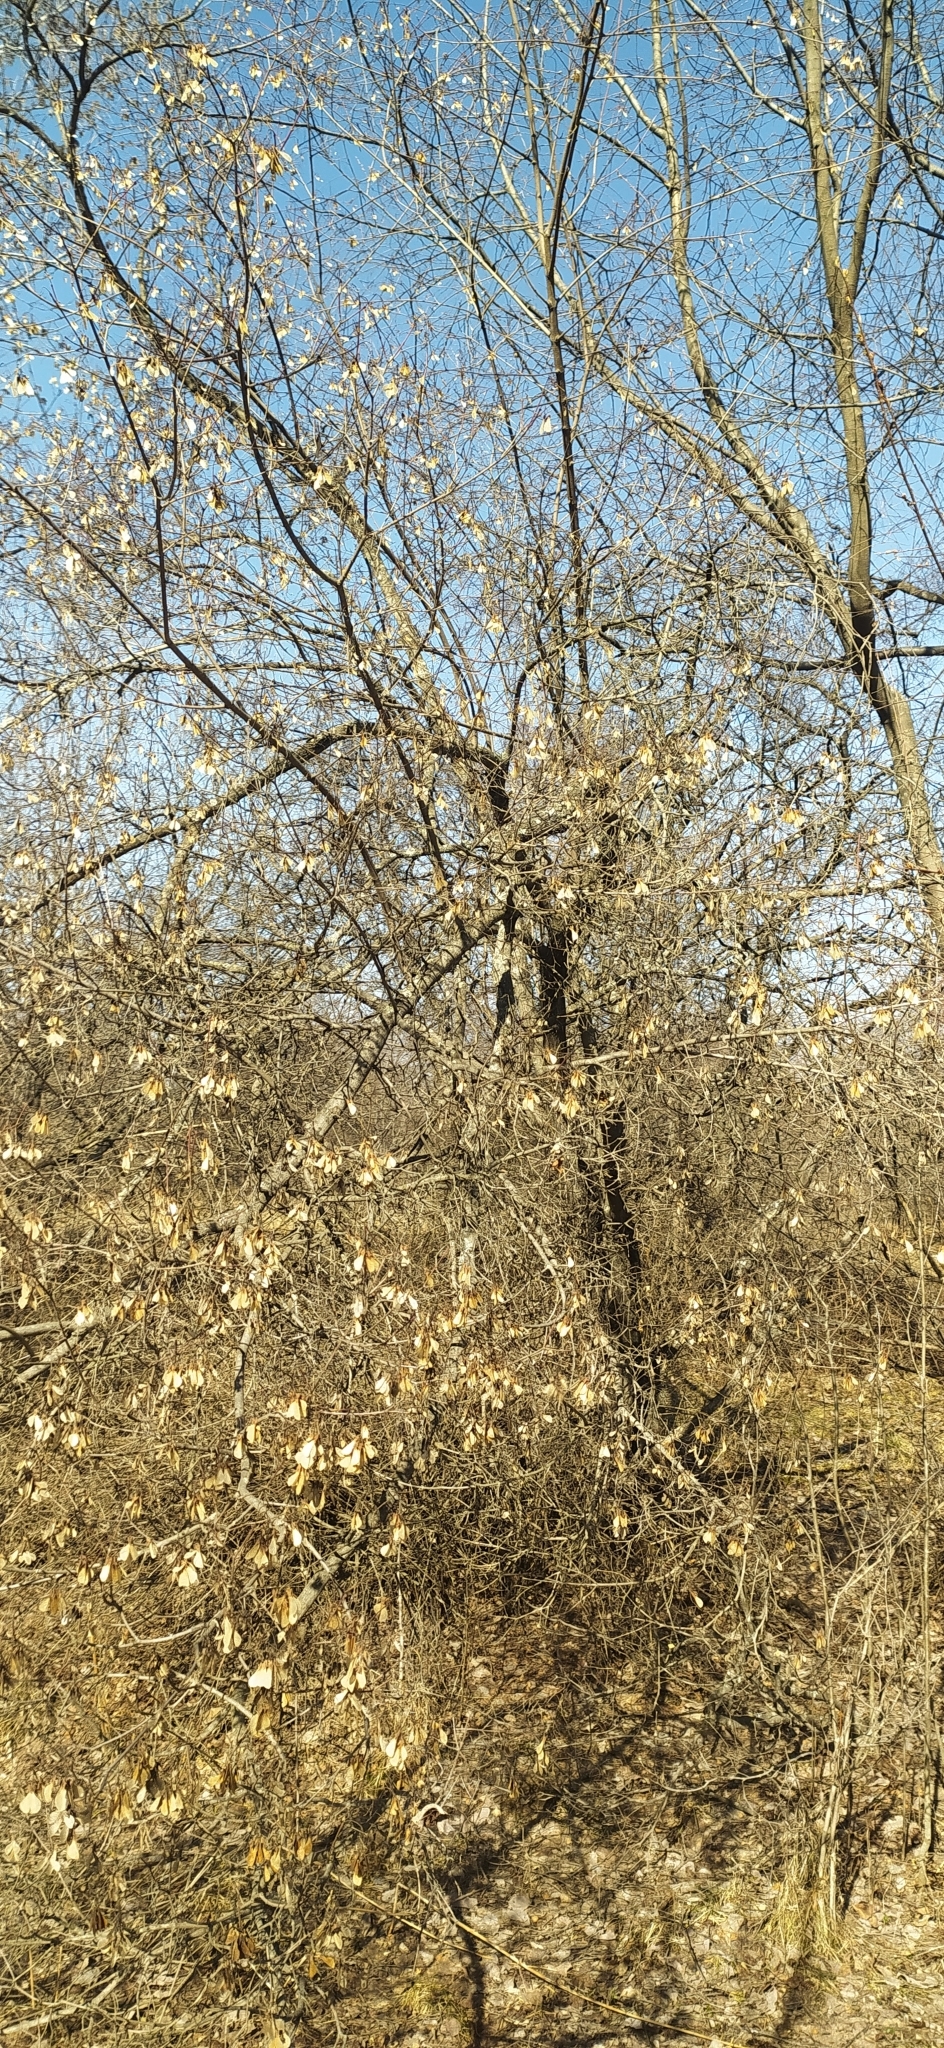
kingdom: Plantae
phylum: Tracheophyta
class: Magnoliopsida
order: Sapindales
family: Sapindaceae
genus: Acer
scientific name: Acer negundo
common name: Ashleaf maple
